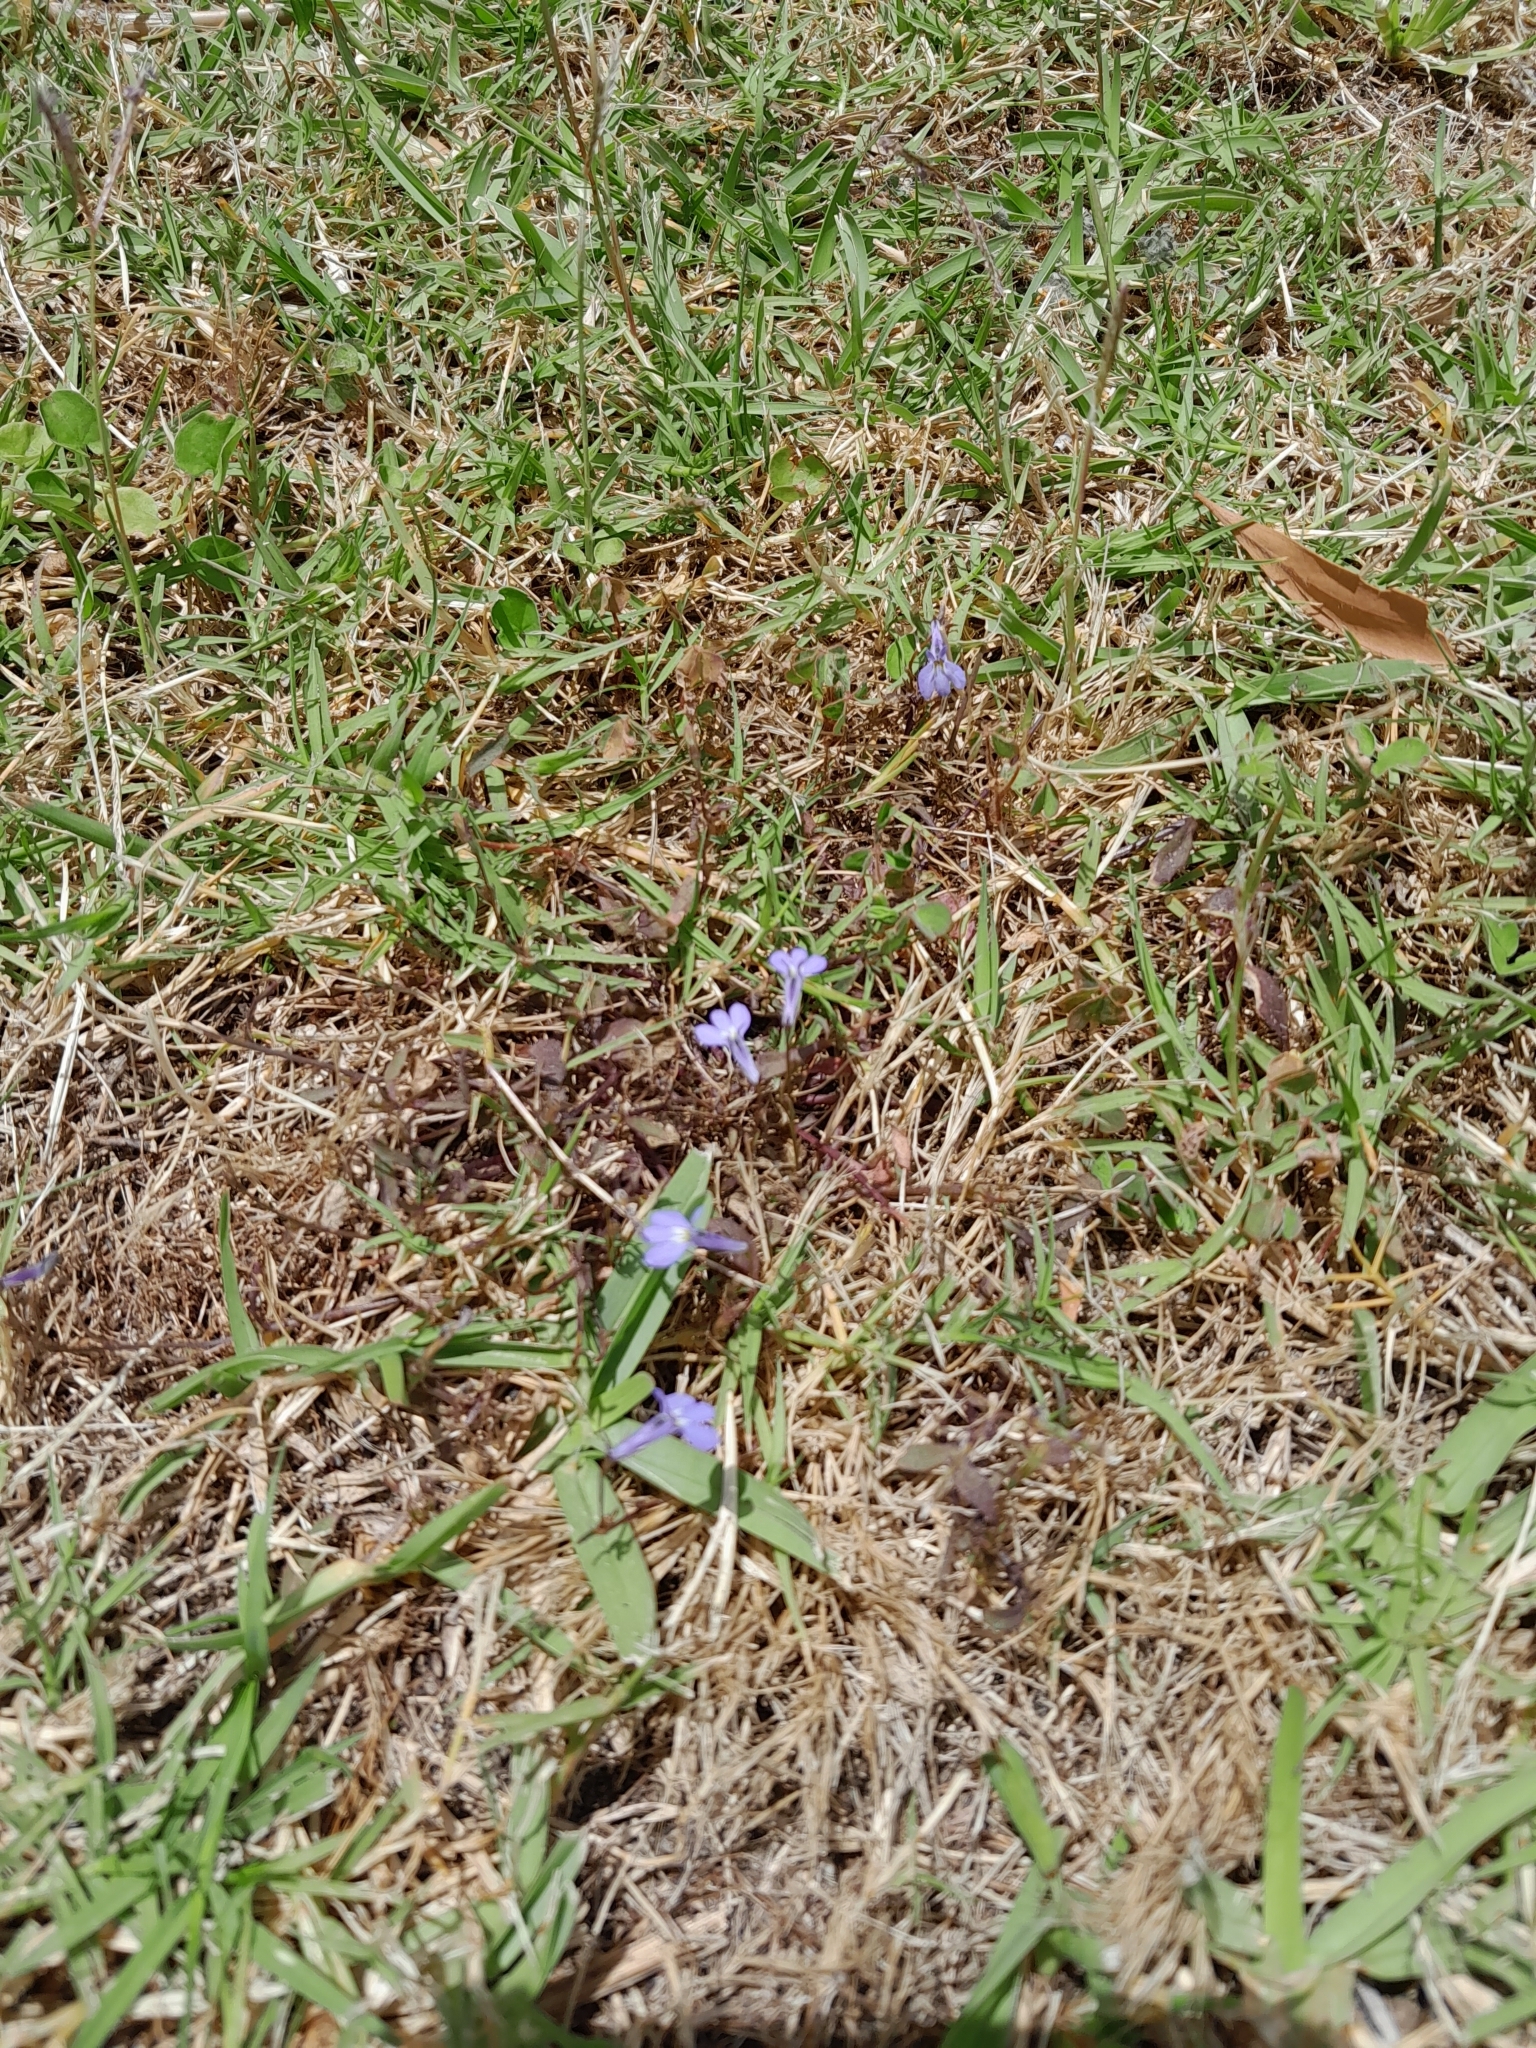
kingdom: Plantae
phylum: Tracheophyta
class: Magnoliopsida
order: Asterales
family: Campanulaceae
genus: Lobelia
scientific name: Lobelia erinus
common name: Edging lobelia
